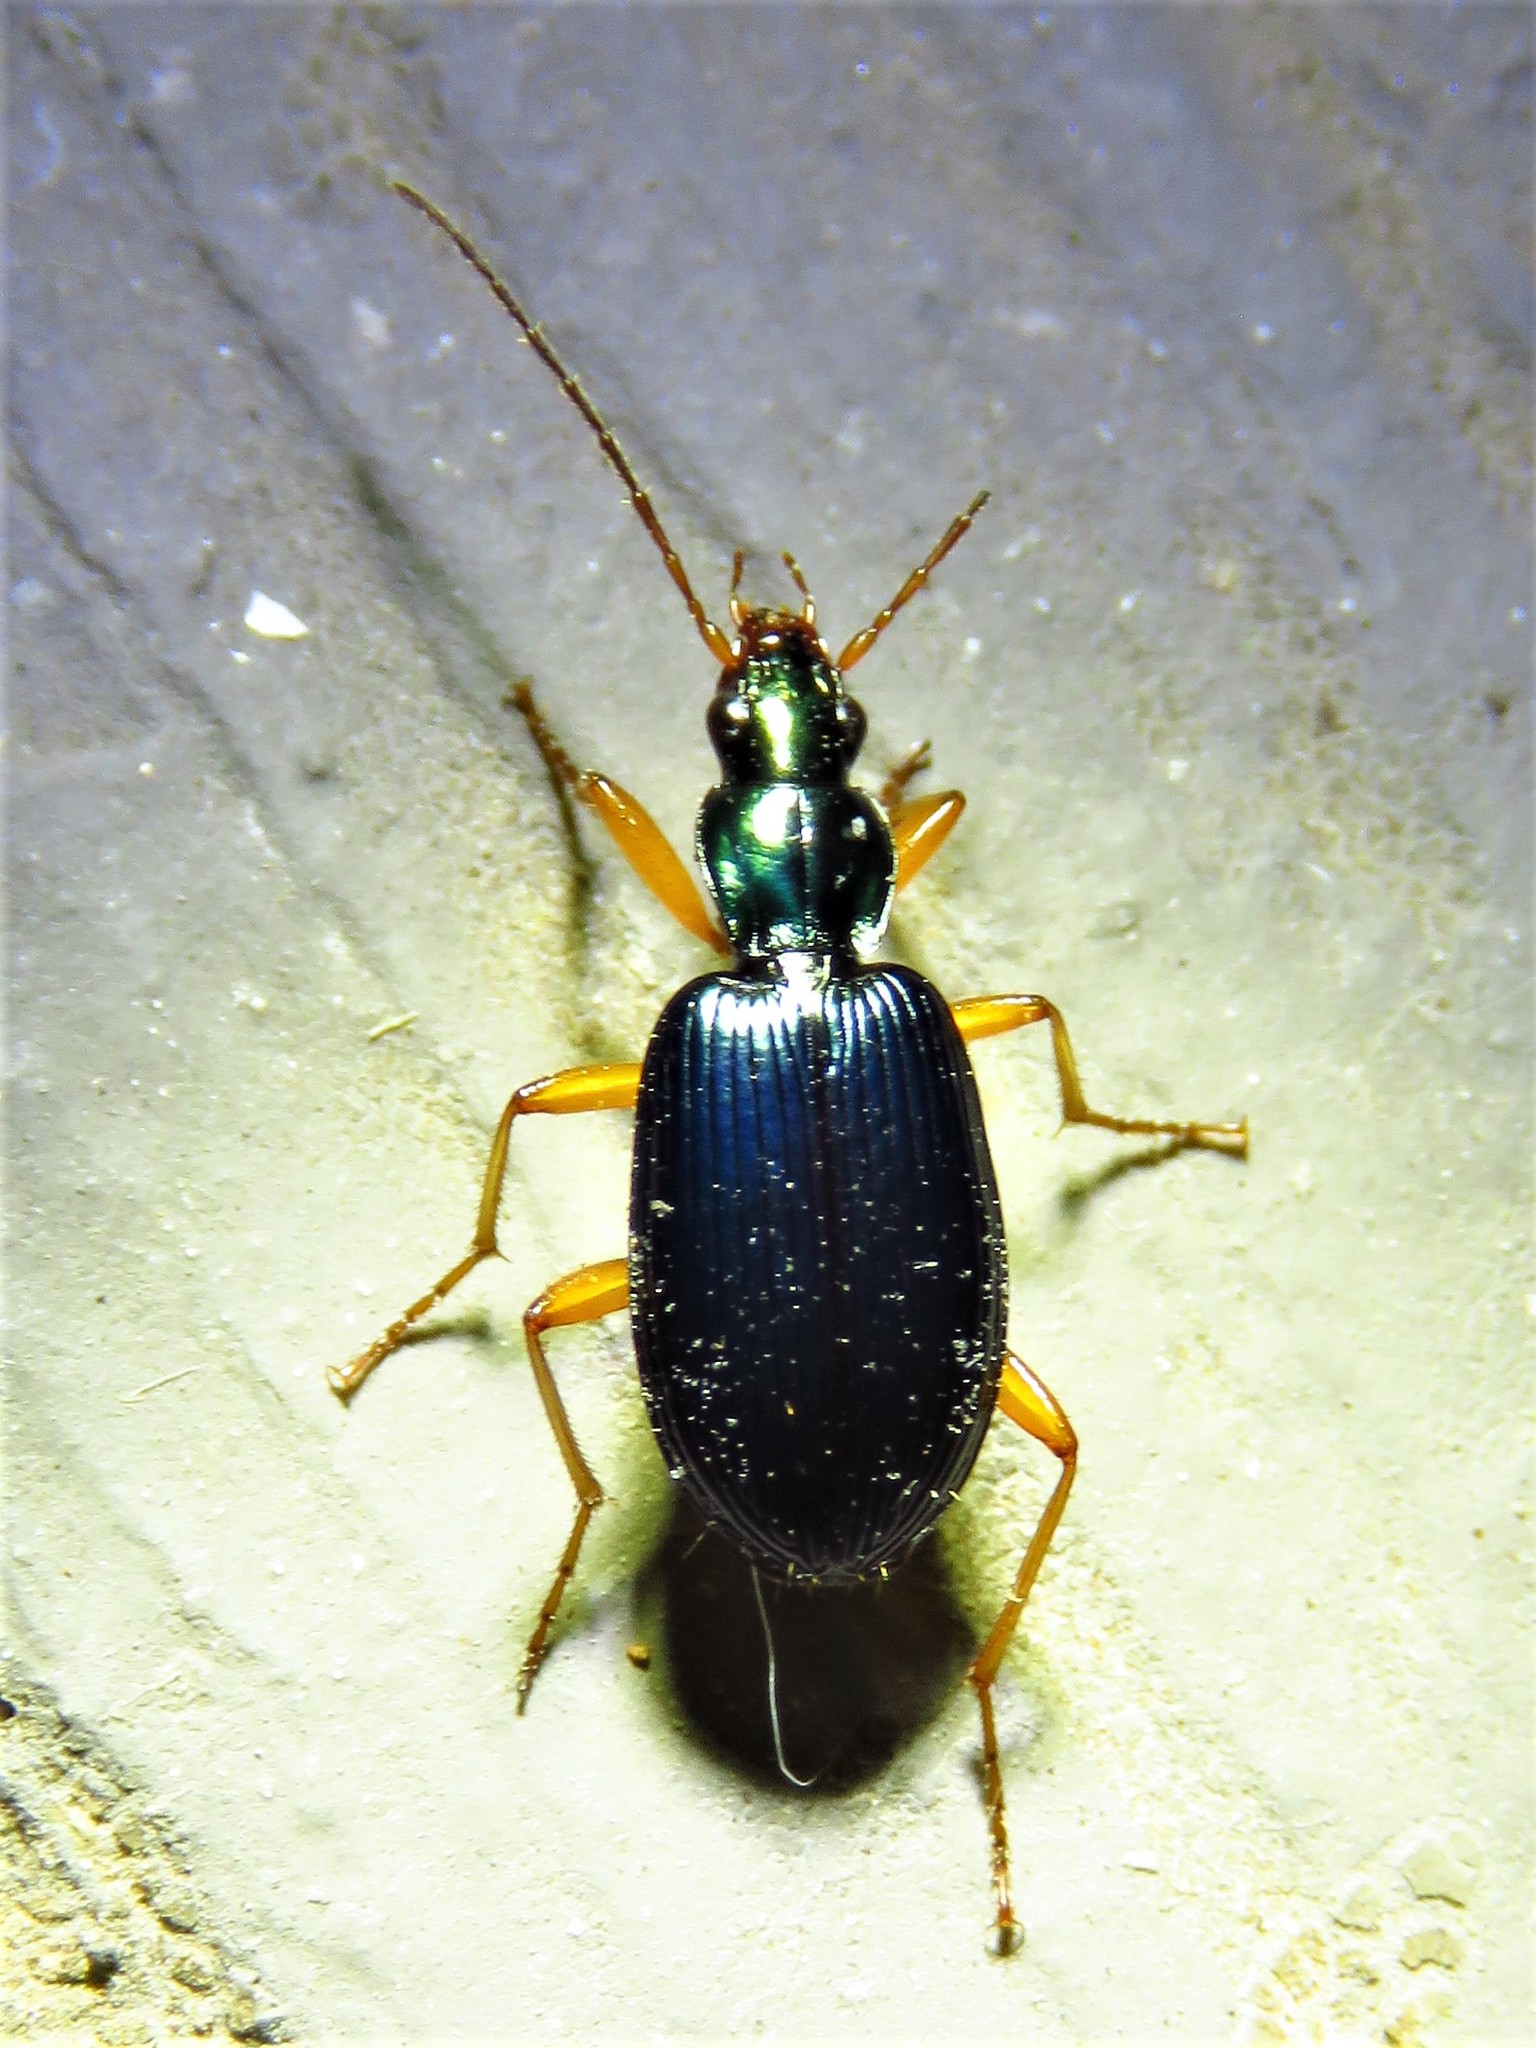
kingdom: Animalia
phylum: Arthropoda
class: Insecta
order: Coleoptera
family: Carabidae
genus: Agonum
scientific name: Agonum extensicolle
